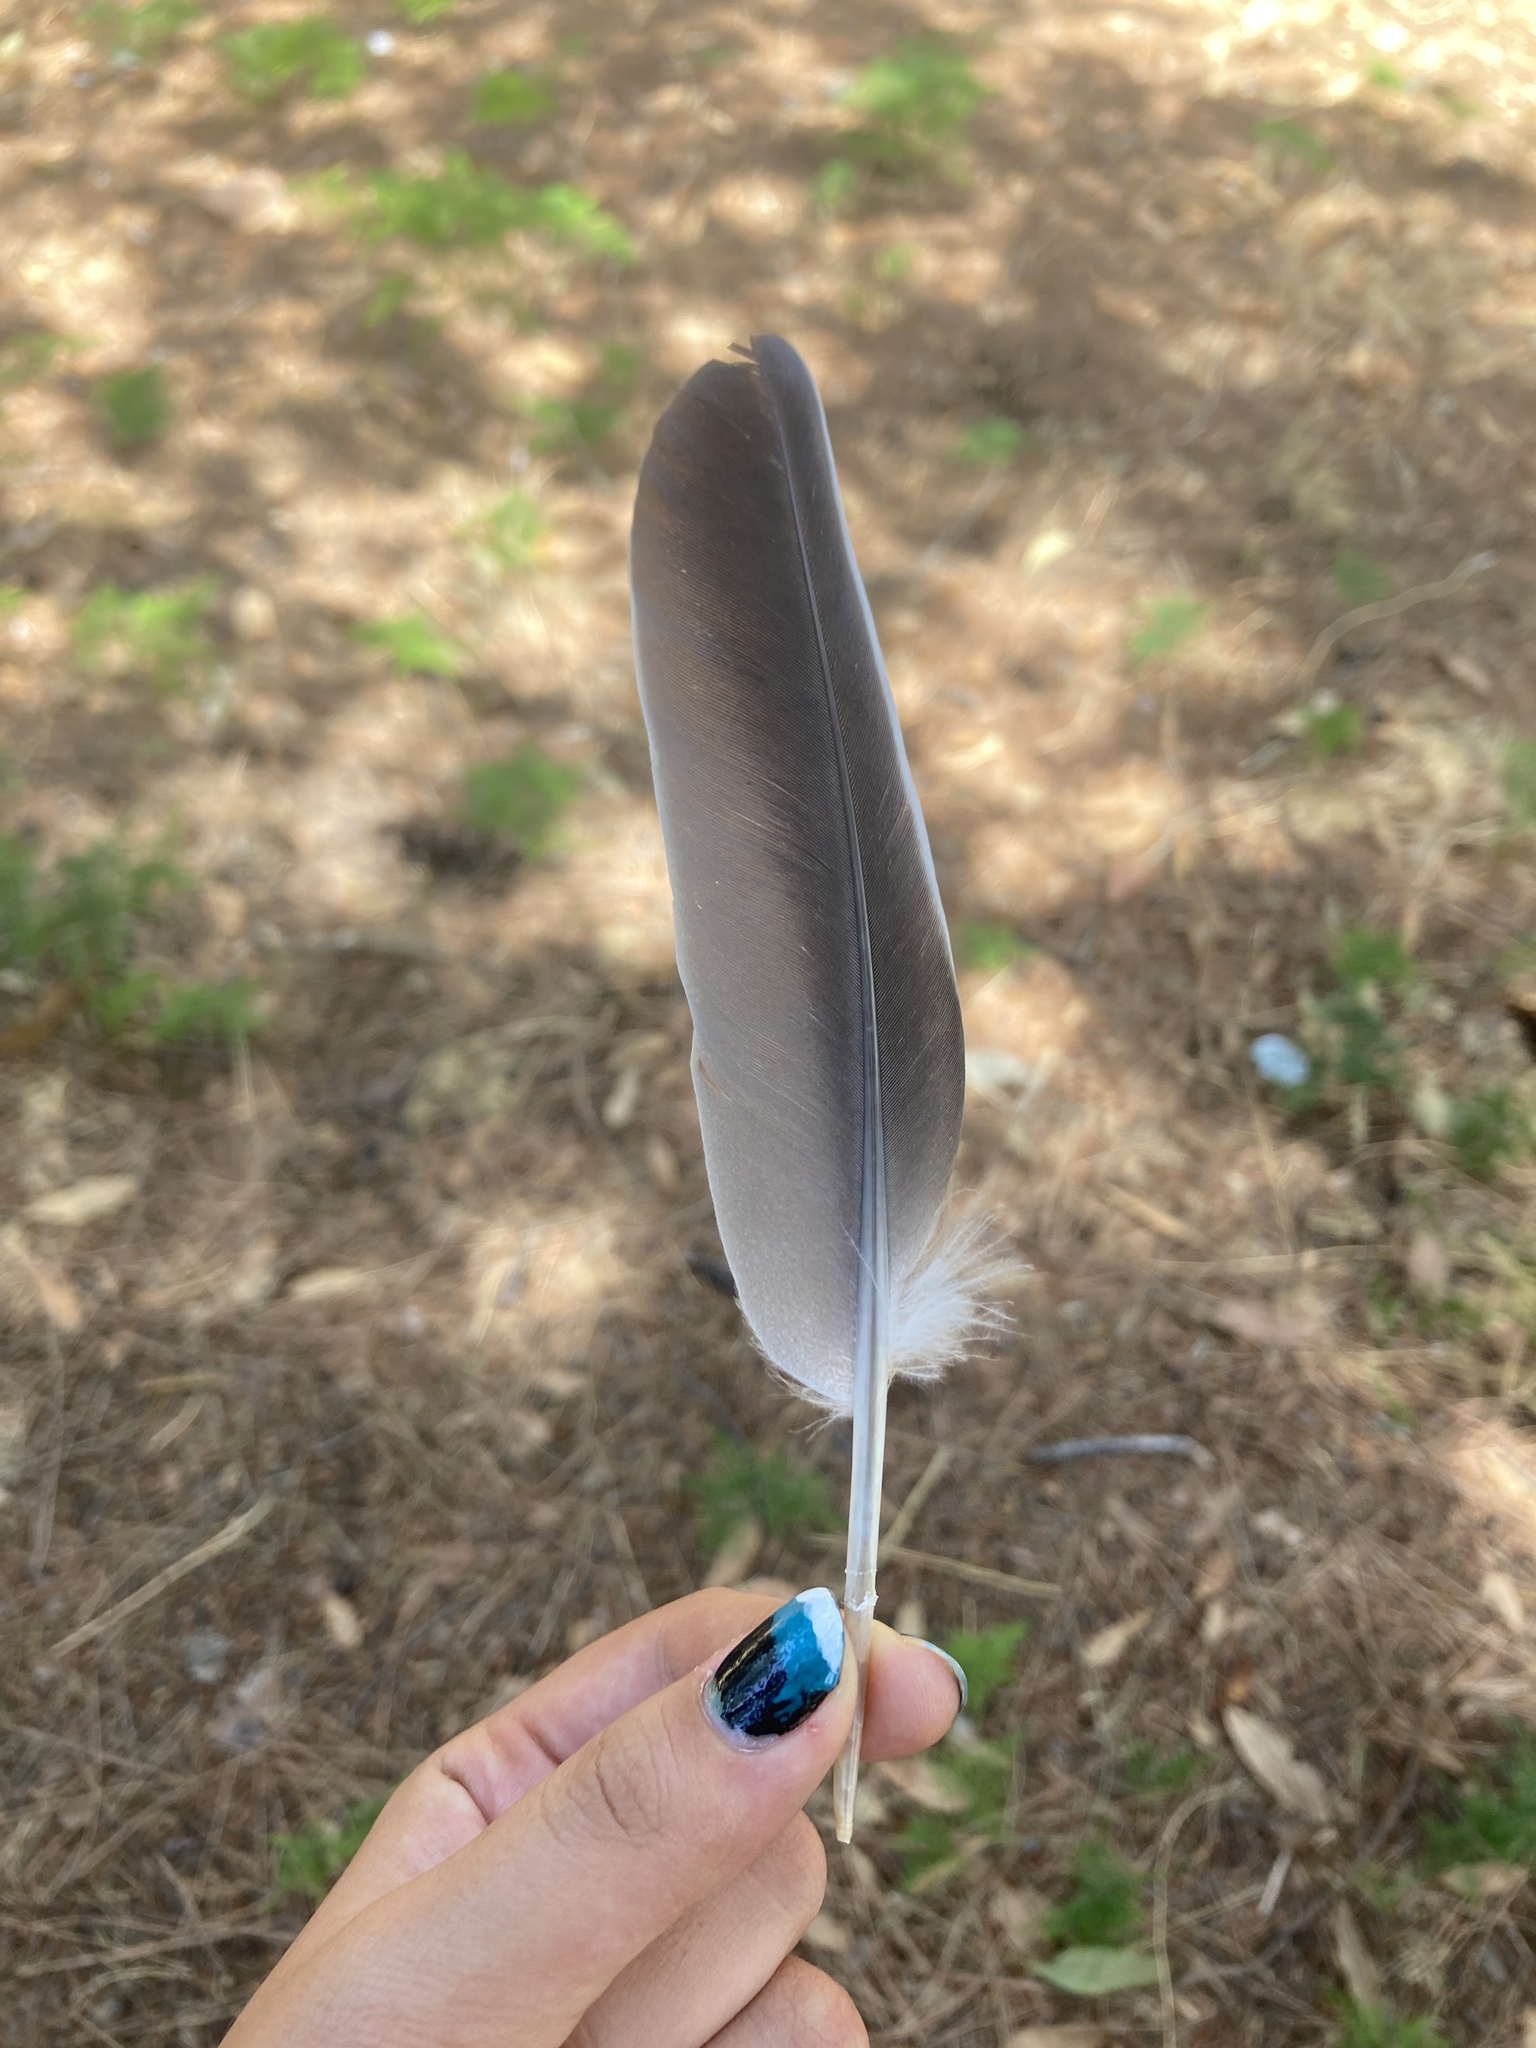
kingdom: Animalia
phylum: Chordata
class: Aves
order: Columbiformes
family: Columbidae
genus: Columba
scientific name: Columba palumbus
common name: Common wood pigeon
